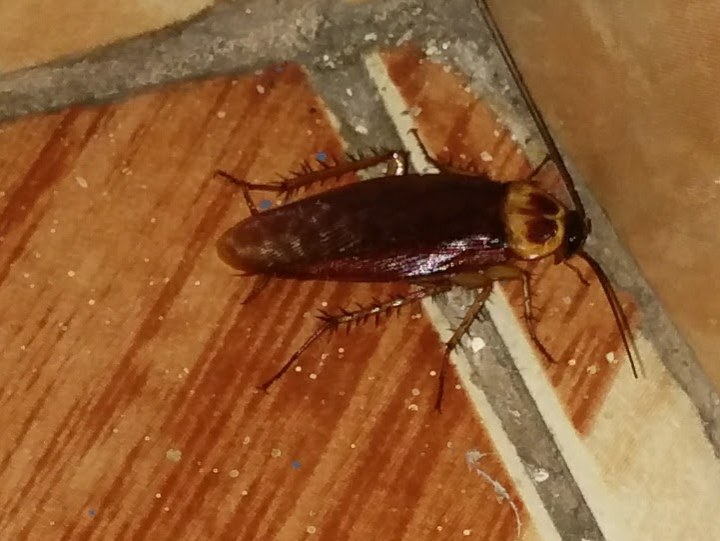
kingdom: Animalia
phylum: Arthropoda
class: Insecta
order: Blattodea
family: Blattidae
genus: Periplaneta
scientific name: Periplaneta americana
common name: American cockroach
